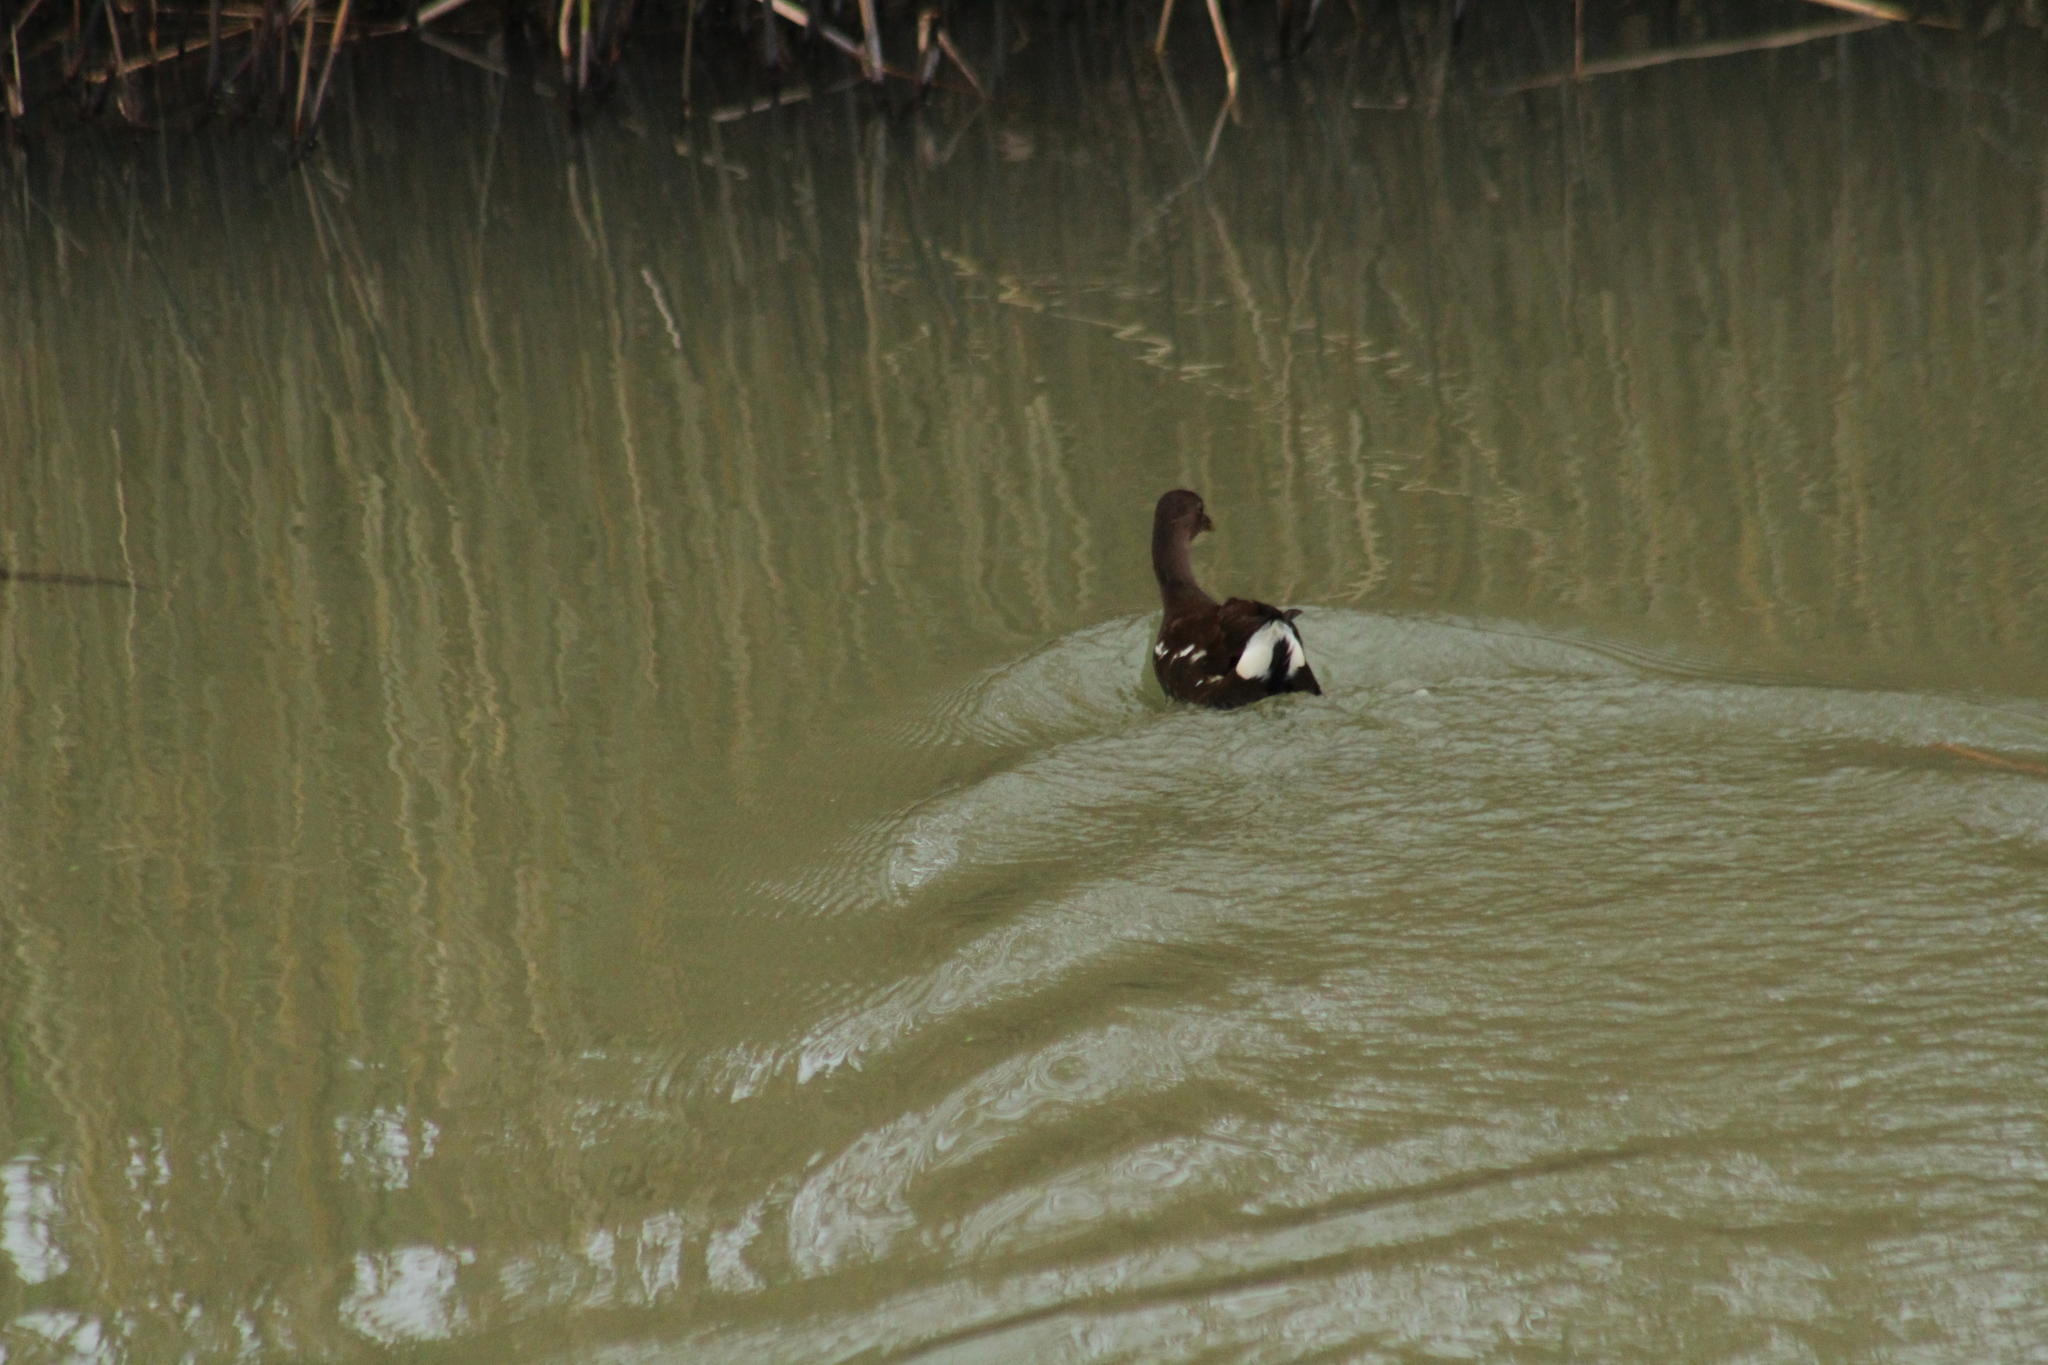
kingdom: Animalia
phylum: Chordata
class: Aves
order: Gruiformes
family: Rallidae
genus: Gallinula
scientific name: Gallinula chloropus
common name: Common moorhen
